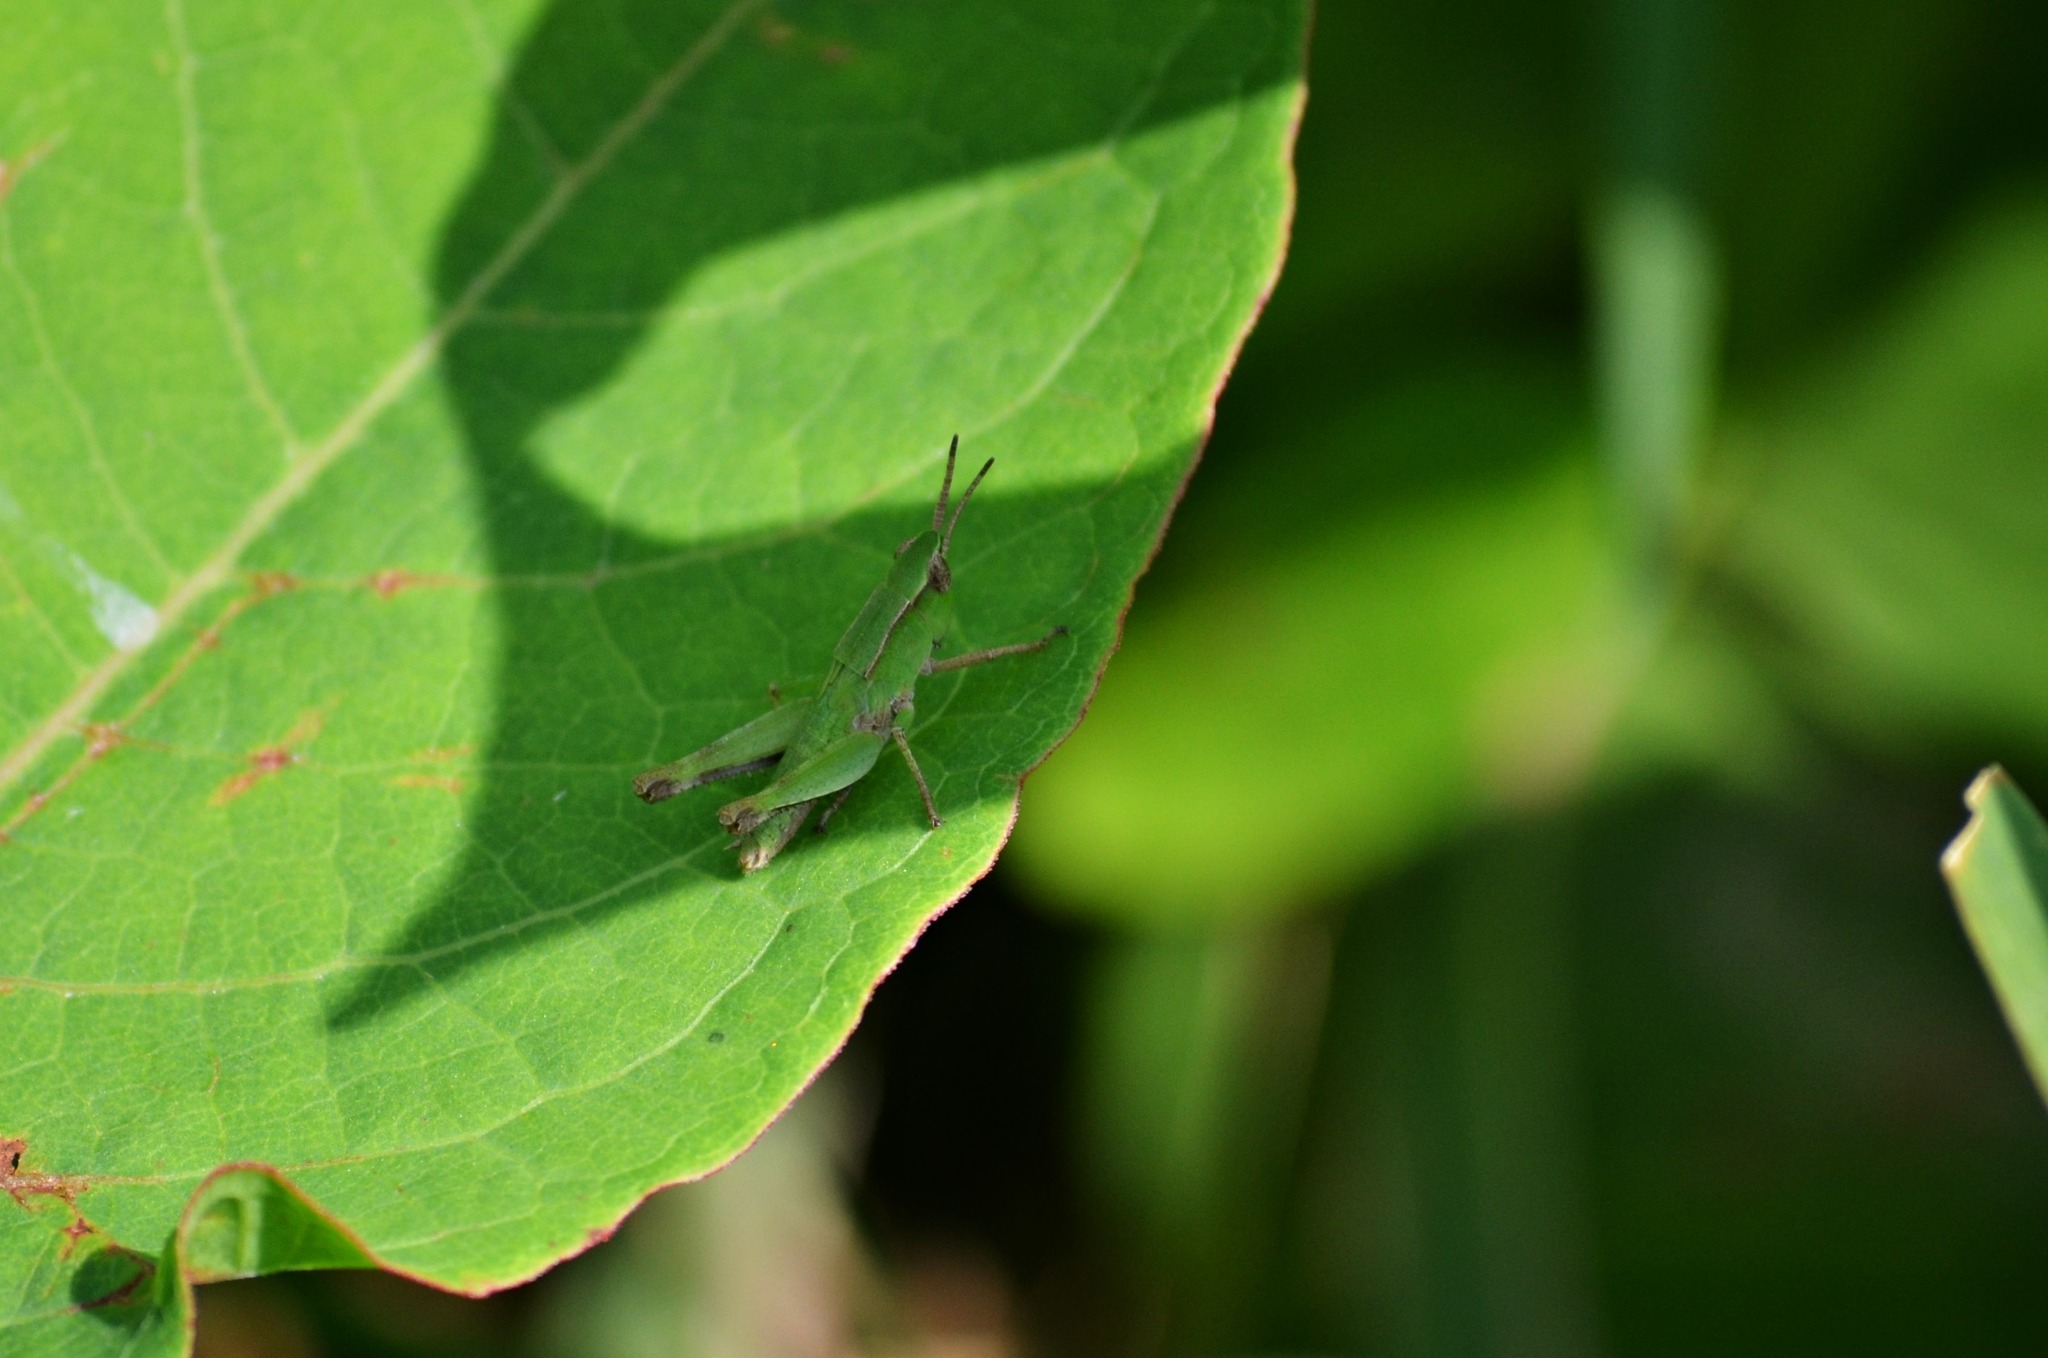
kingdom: Animalia
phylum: Arthropoda
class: Insecta
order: Orthoptera
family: Acrididae
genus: Dichromorpha
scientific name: Dichromorpha viridis
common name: Short-winged green grasshopper
